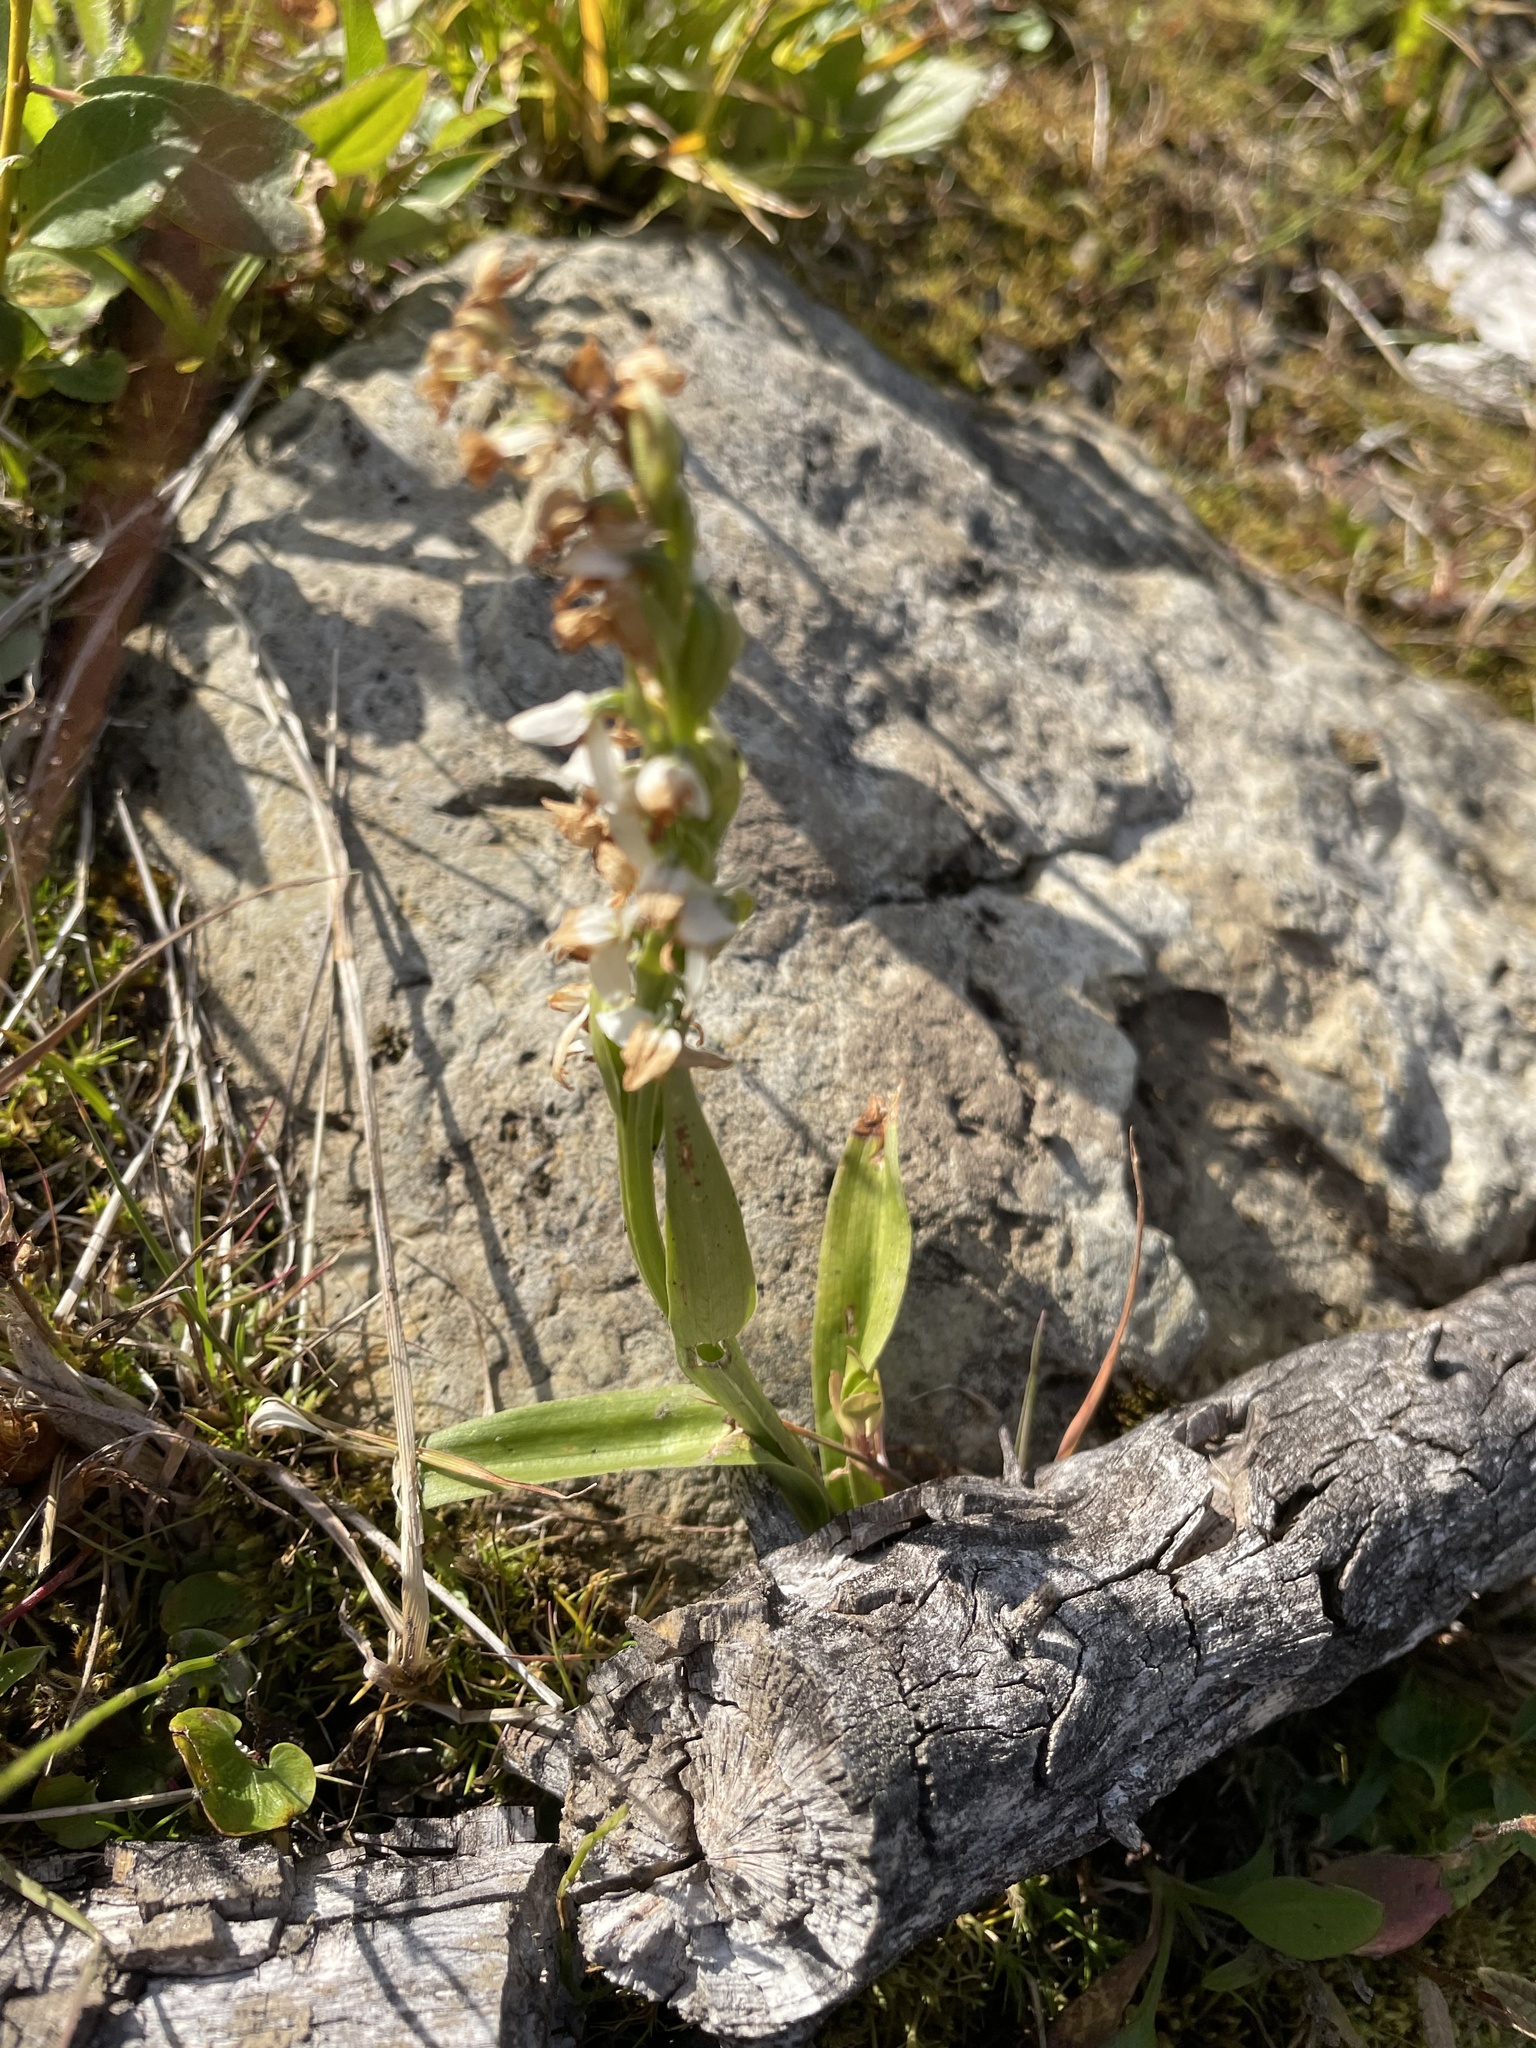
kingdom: Plantae
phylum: Tracheophyta
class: Liliopsida
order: Asparagales
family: Orchidaceae
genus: Platanthera
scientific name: Platanthera dilatata
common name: Bog candles
